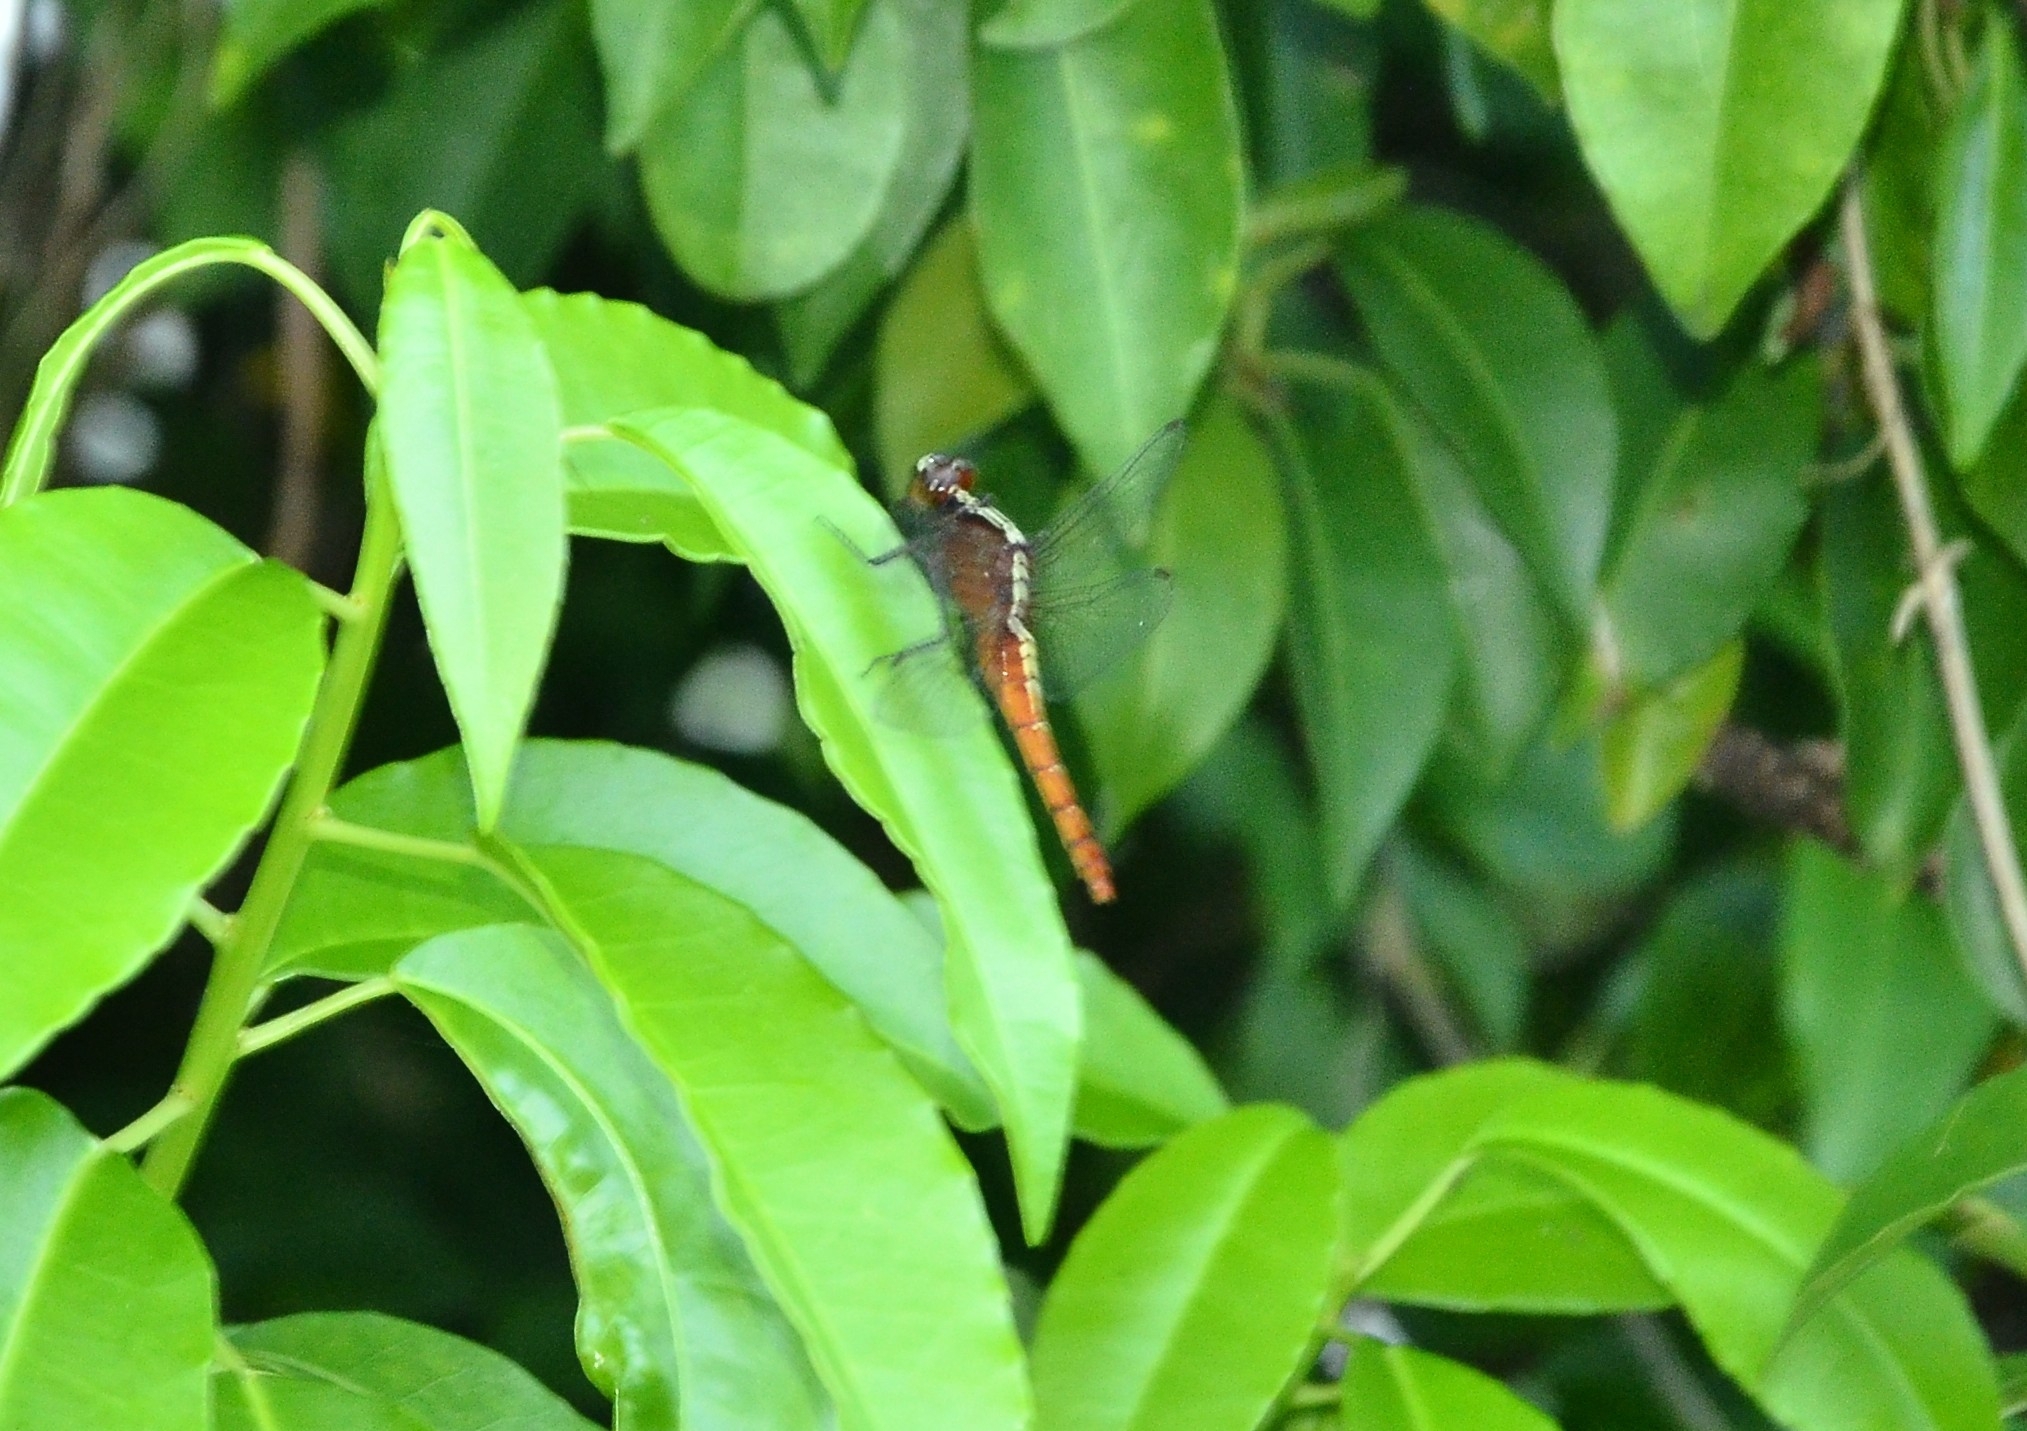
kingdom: Animalia
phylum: Arthropoda
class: Insecta
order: Odonata
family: Libellulidae
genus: Rhodothemis
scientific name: Rhodothemis rufa
